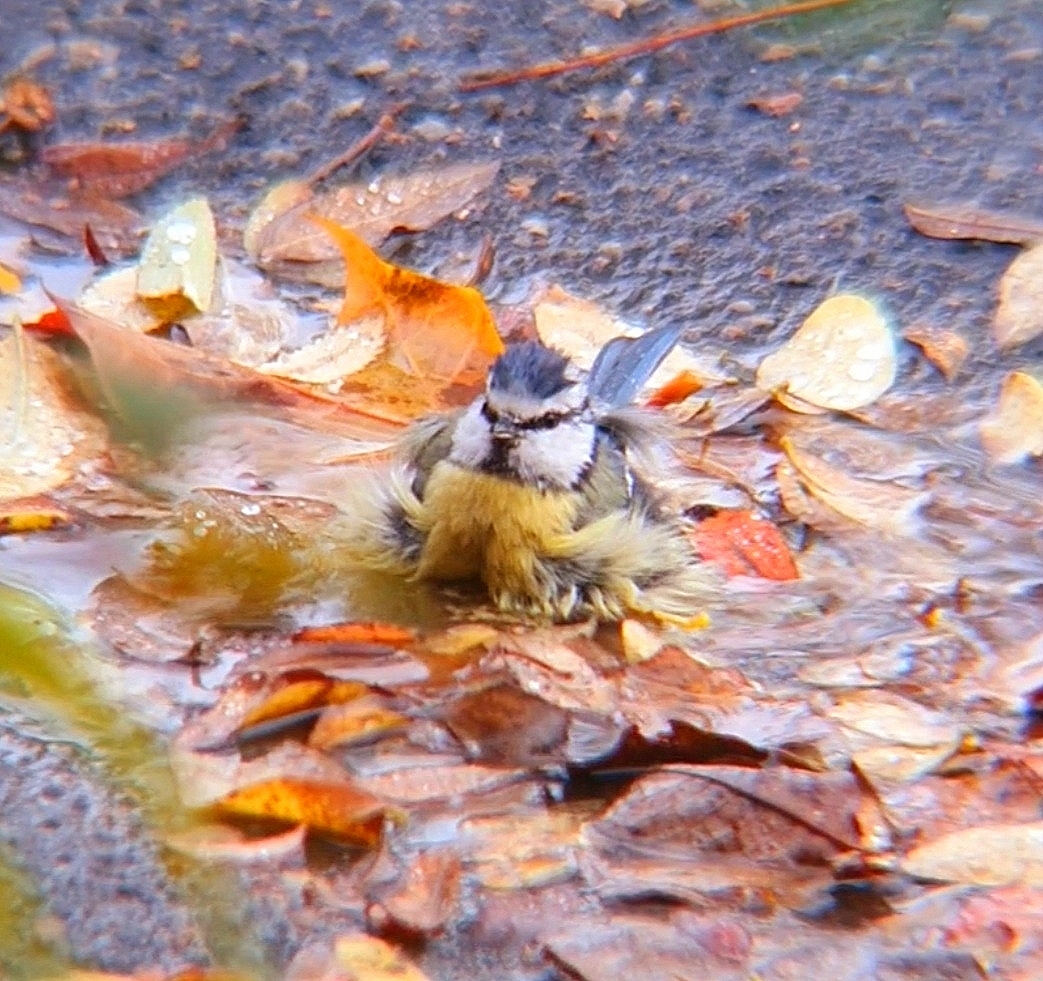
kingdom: Animalia
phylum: Chordata
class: Aves
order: Passeriformes
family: Paridae
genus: Cyanistes
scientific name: Cyanistes caeruleus
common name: Eurasian blue tit
